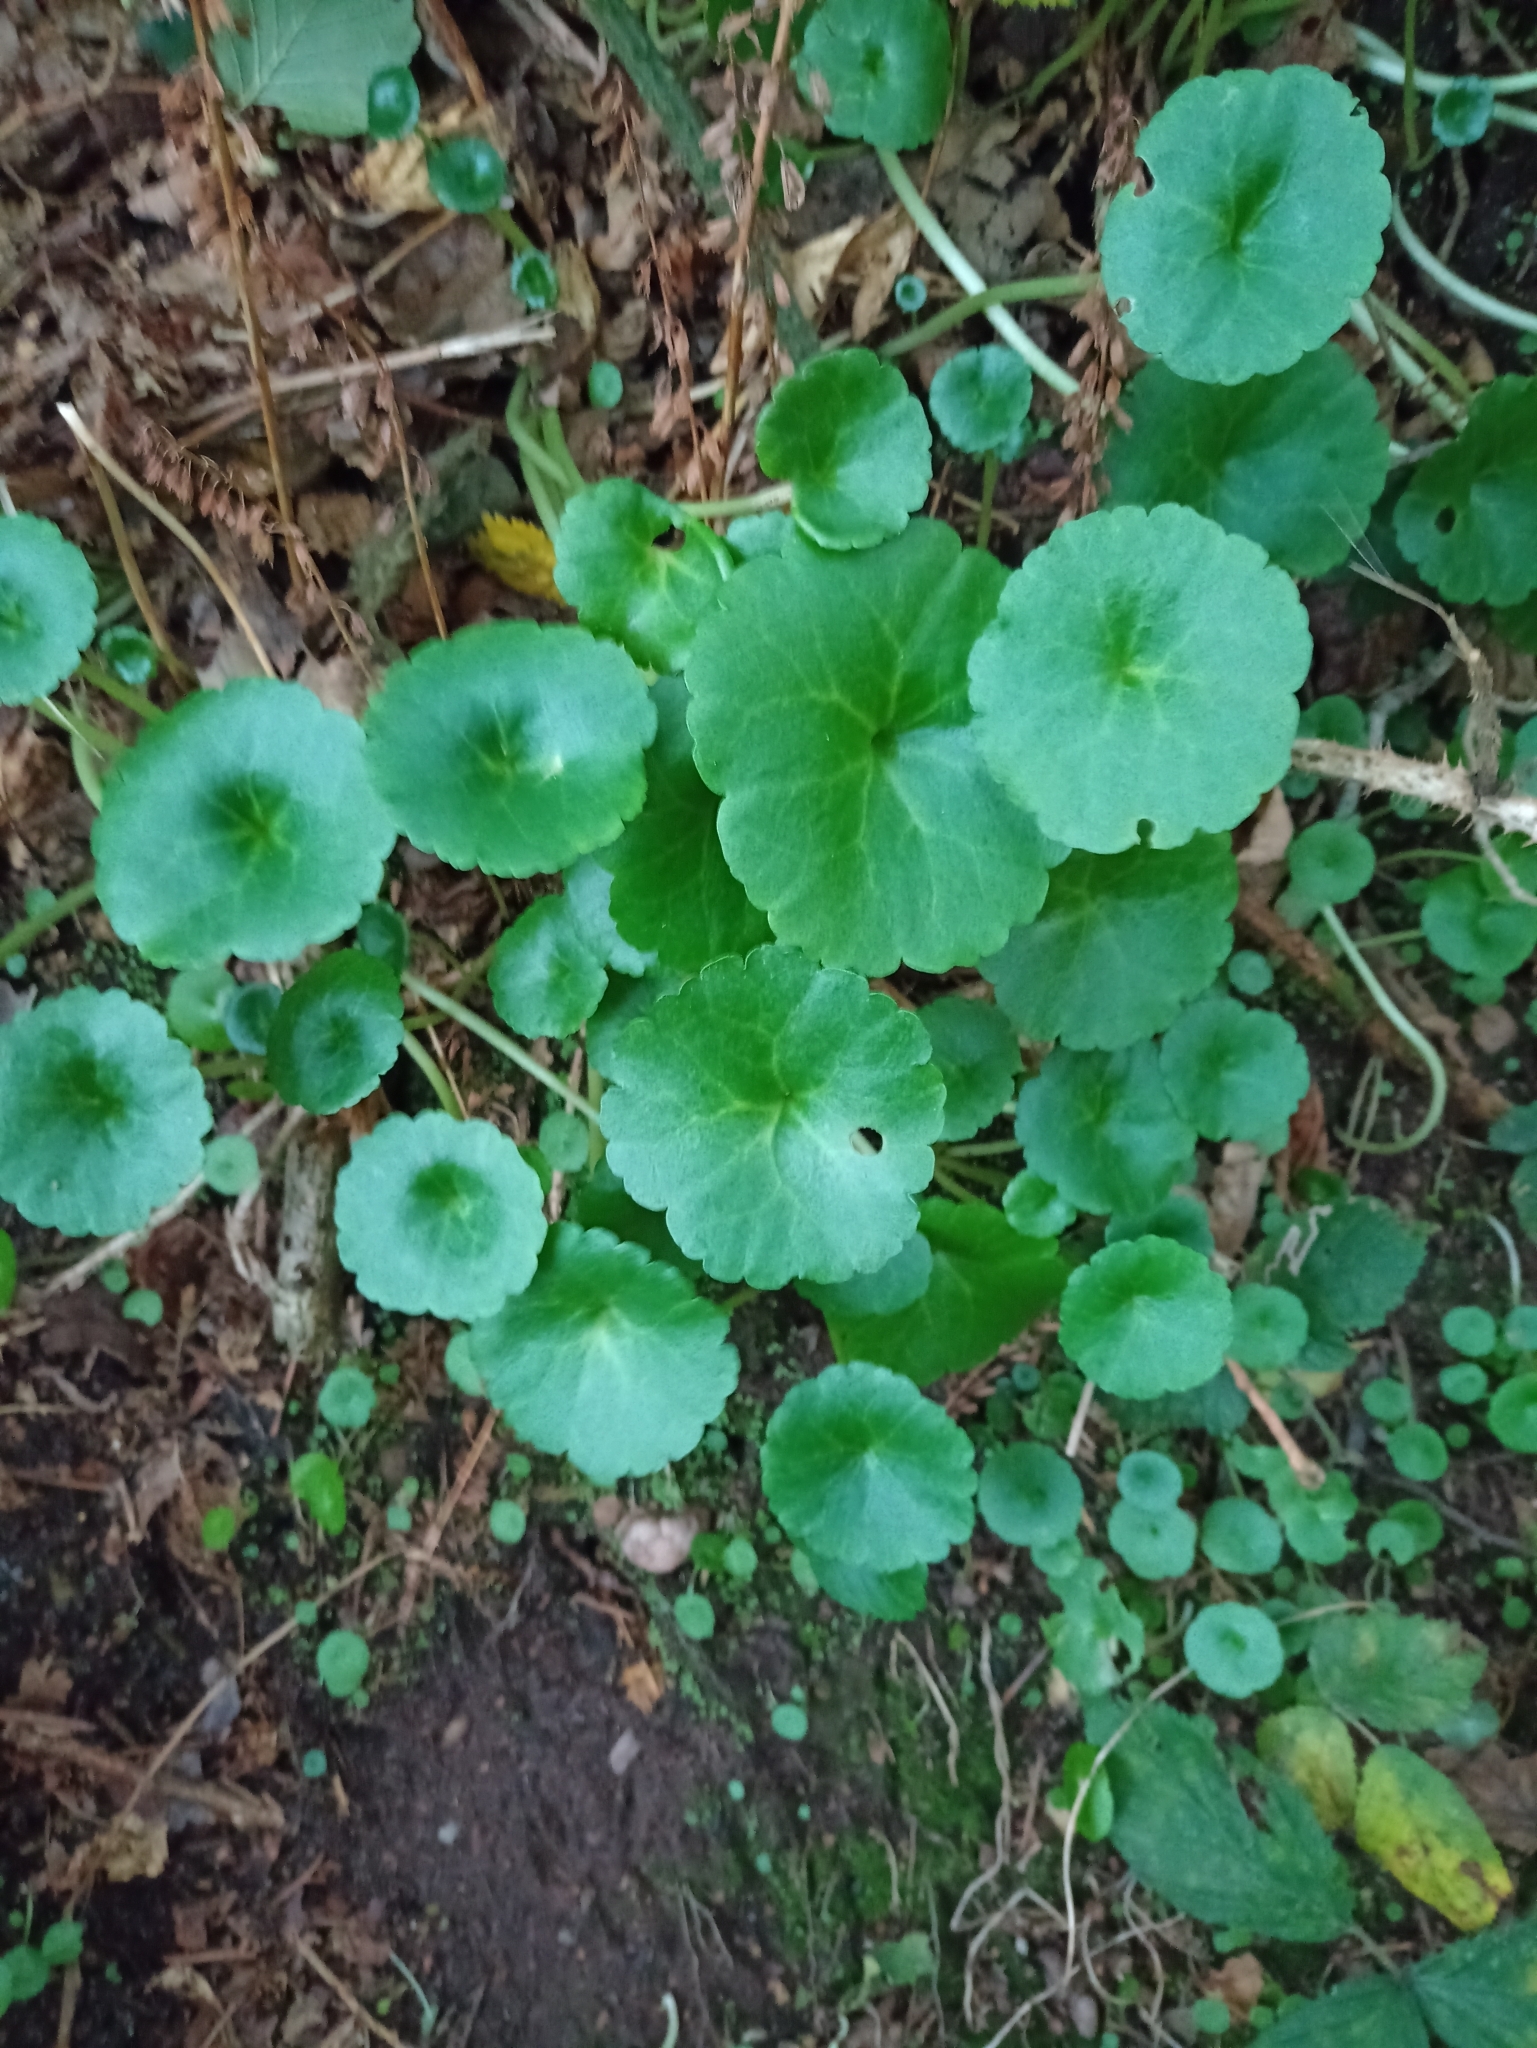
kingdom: Plantae
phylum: Tracheophyta
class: Magnoliopsida
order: Saxifragales
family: Crassulaceae
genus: Umbilicus
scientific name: Umbilicus rupestris
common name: Navelwort
